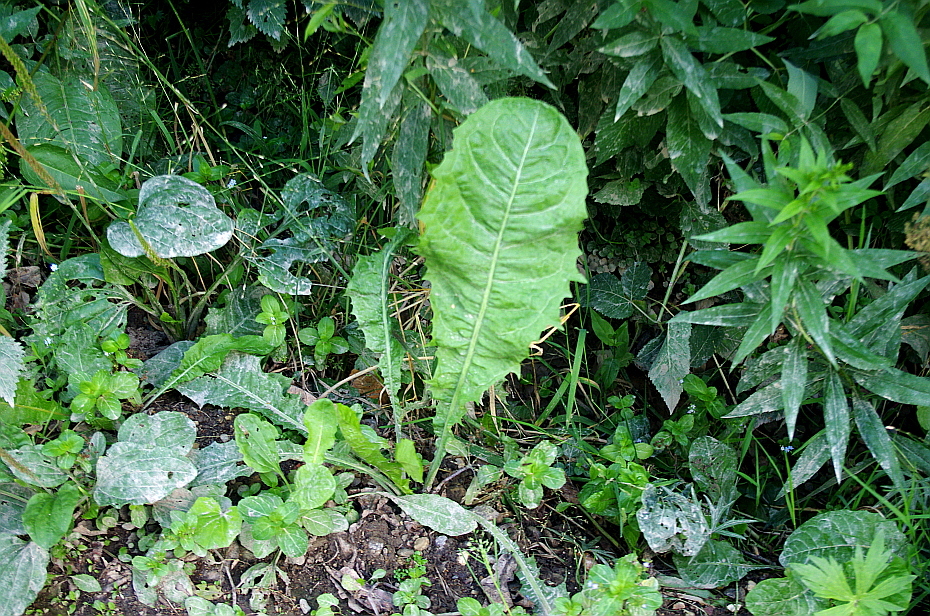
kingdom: Plantae
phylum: Tracheophyta
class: Magnoliopsida
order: Asterales
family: Asteraceae
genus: Taraxacum
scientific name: Taraxacum officinale
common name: Common dandelion
